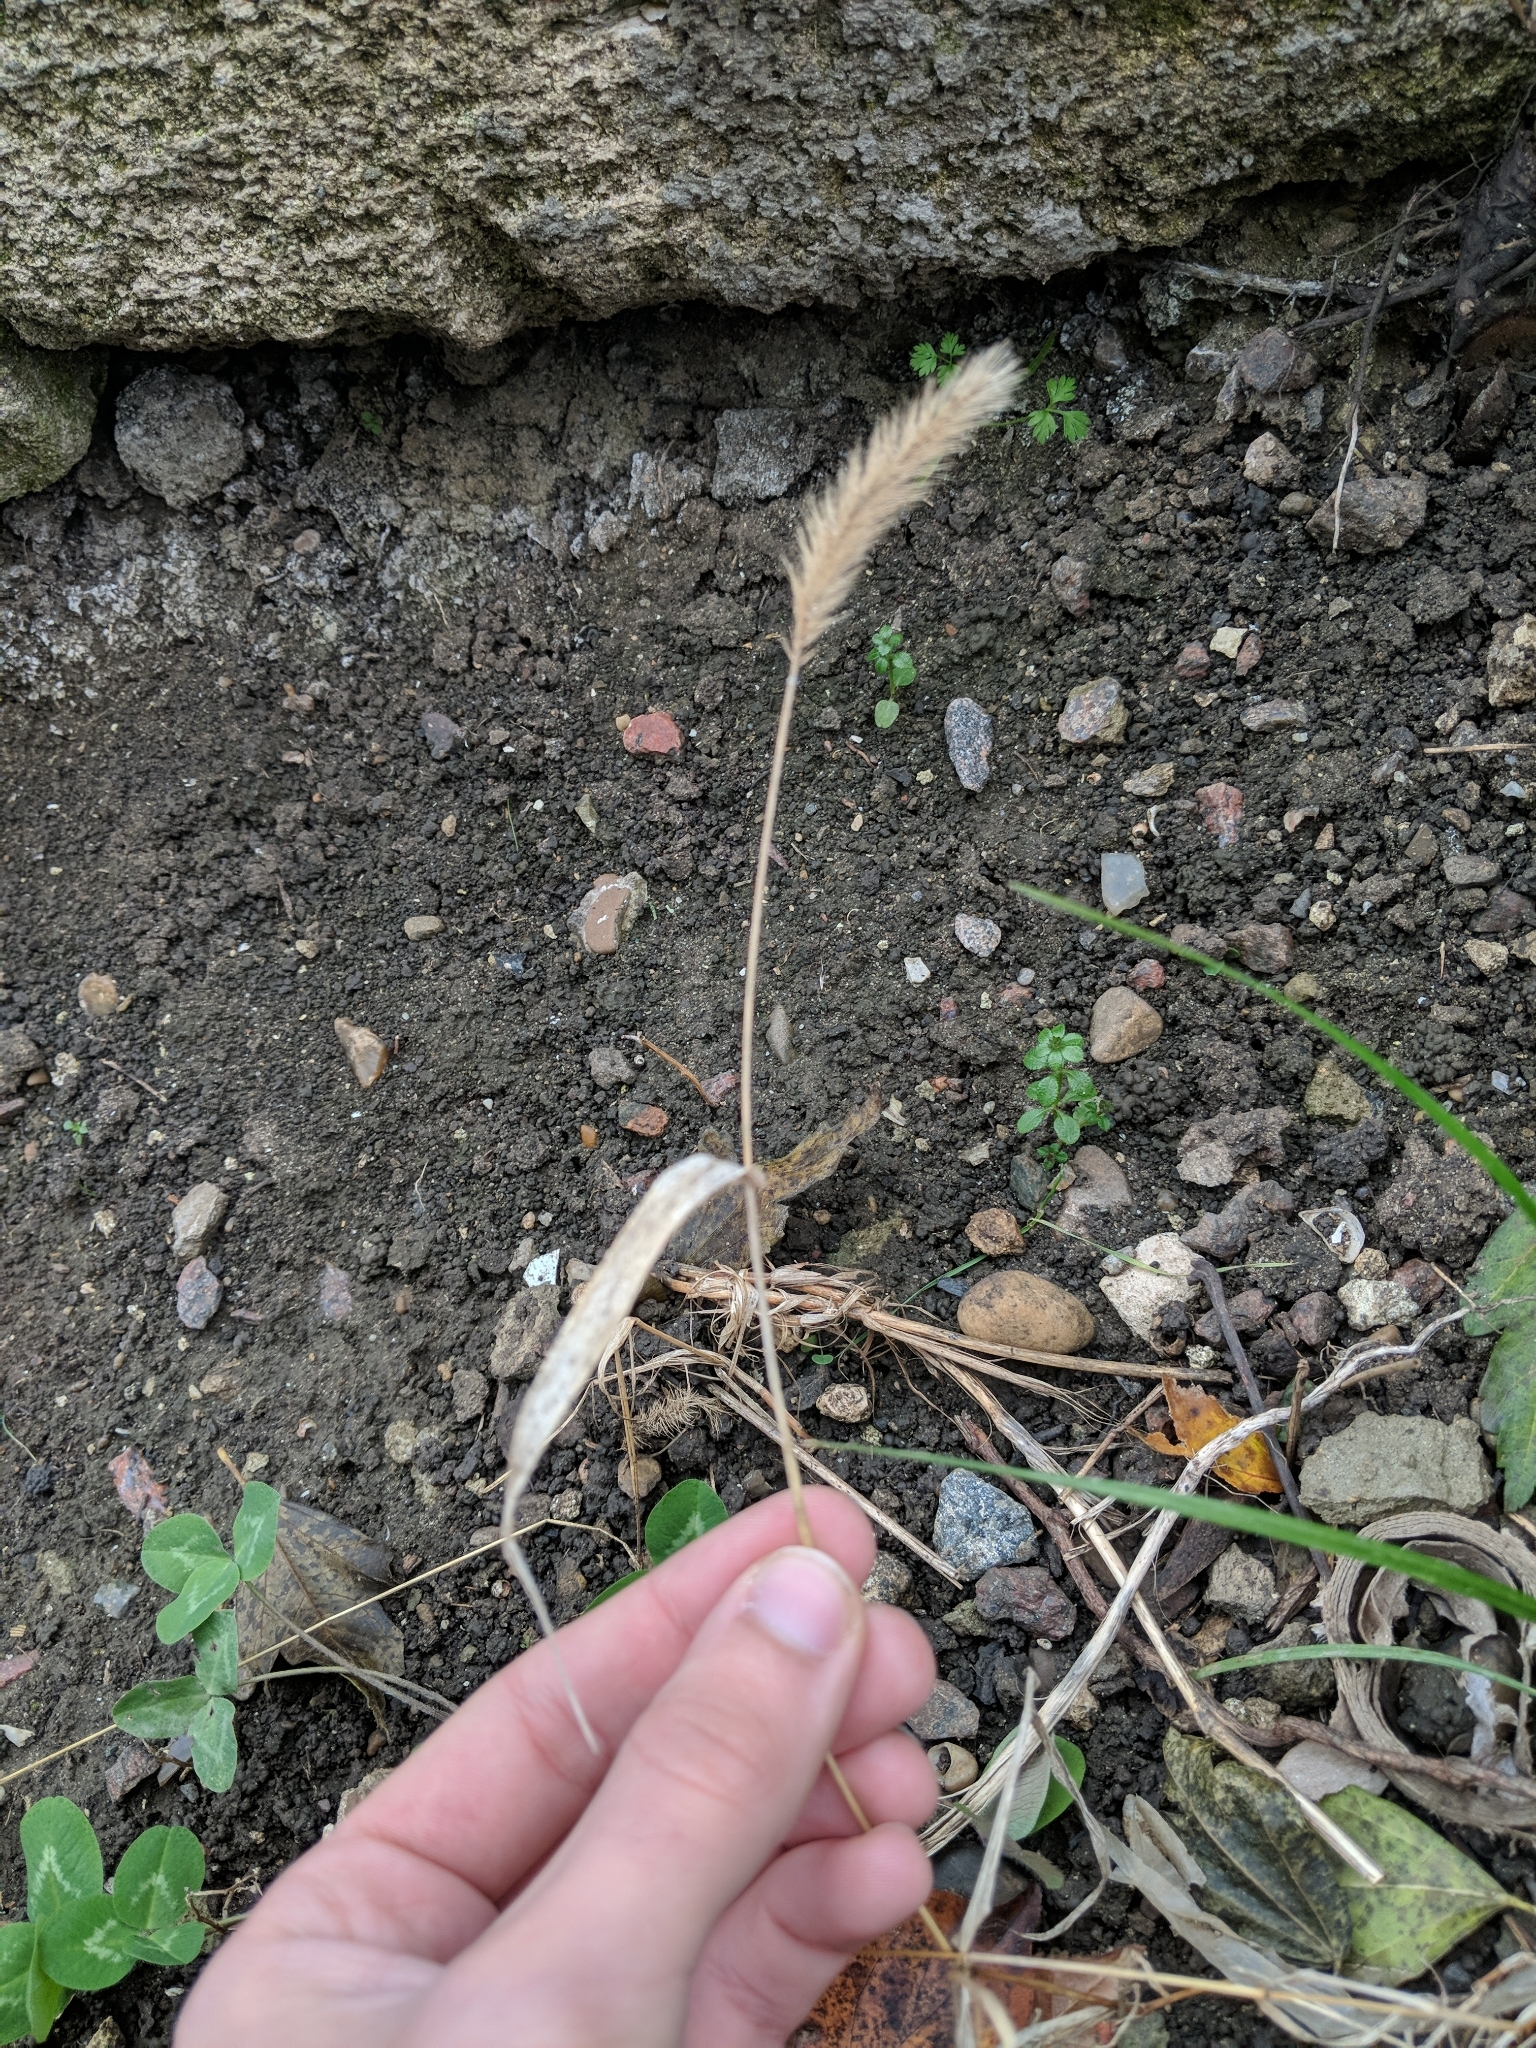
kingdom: Plantae
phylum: Tracheophyta
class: Liliopsida
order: Poales
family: Poaceae
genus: Setaria
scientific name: Setaria viridis
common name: Green bristlegrass
